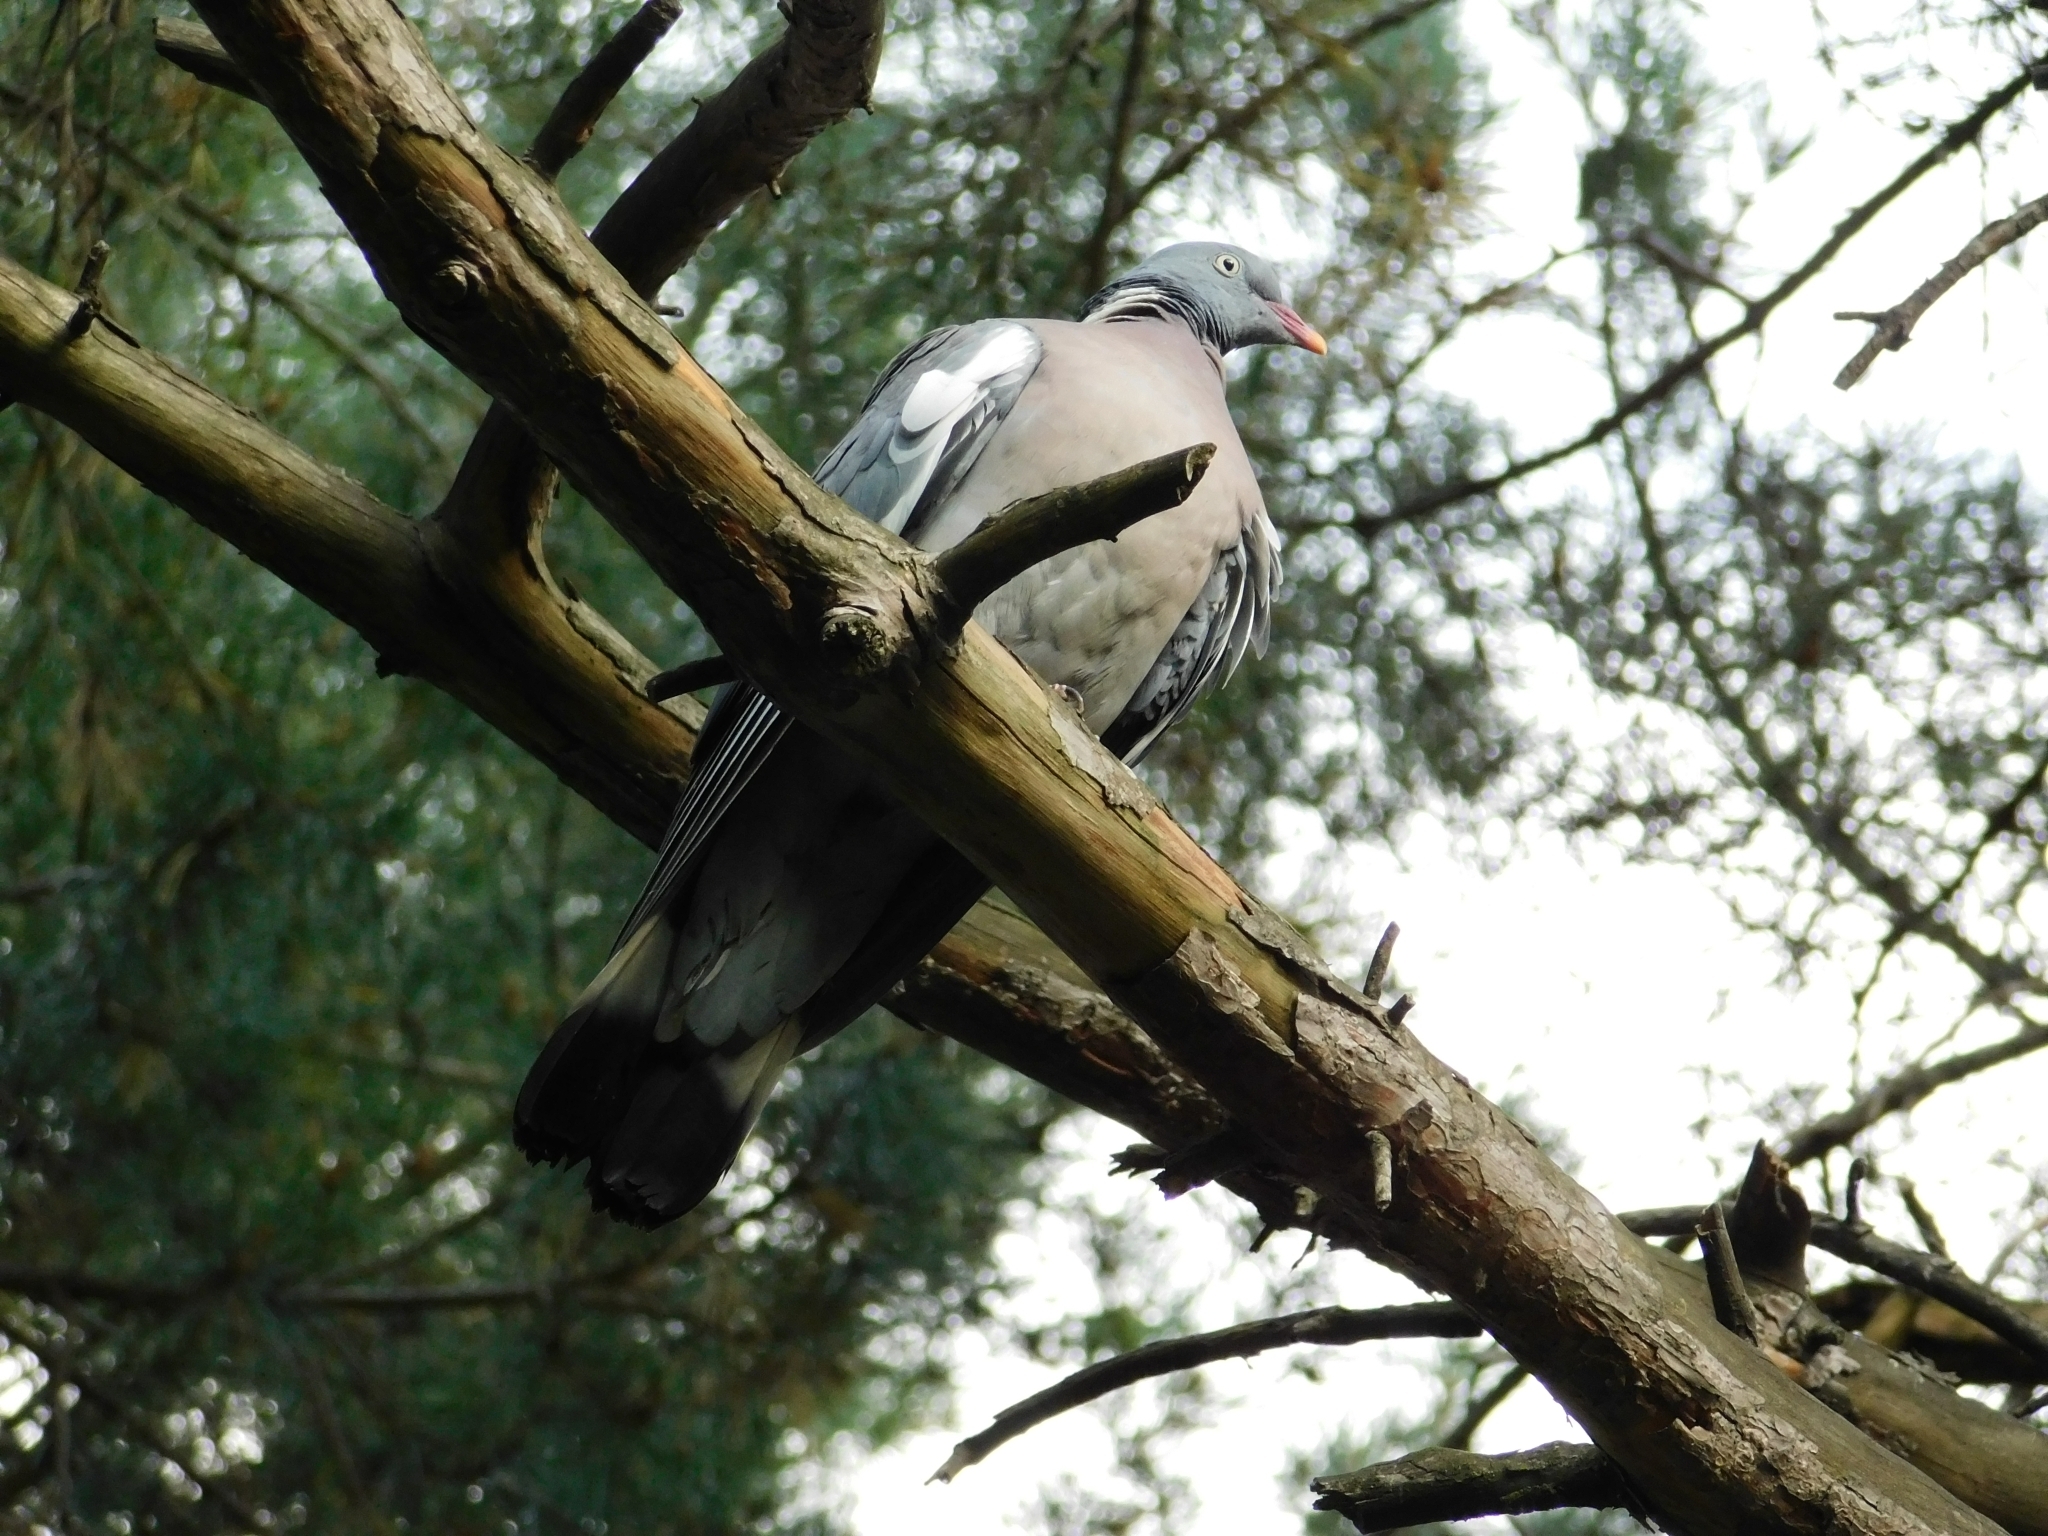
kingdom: Animalia
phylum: Chordata
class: Aves
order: Columbiformes
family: Columbidae
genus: Columba
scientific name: Columba palumbus
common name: Common wood pigeon
